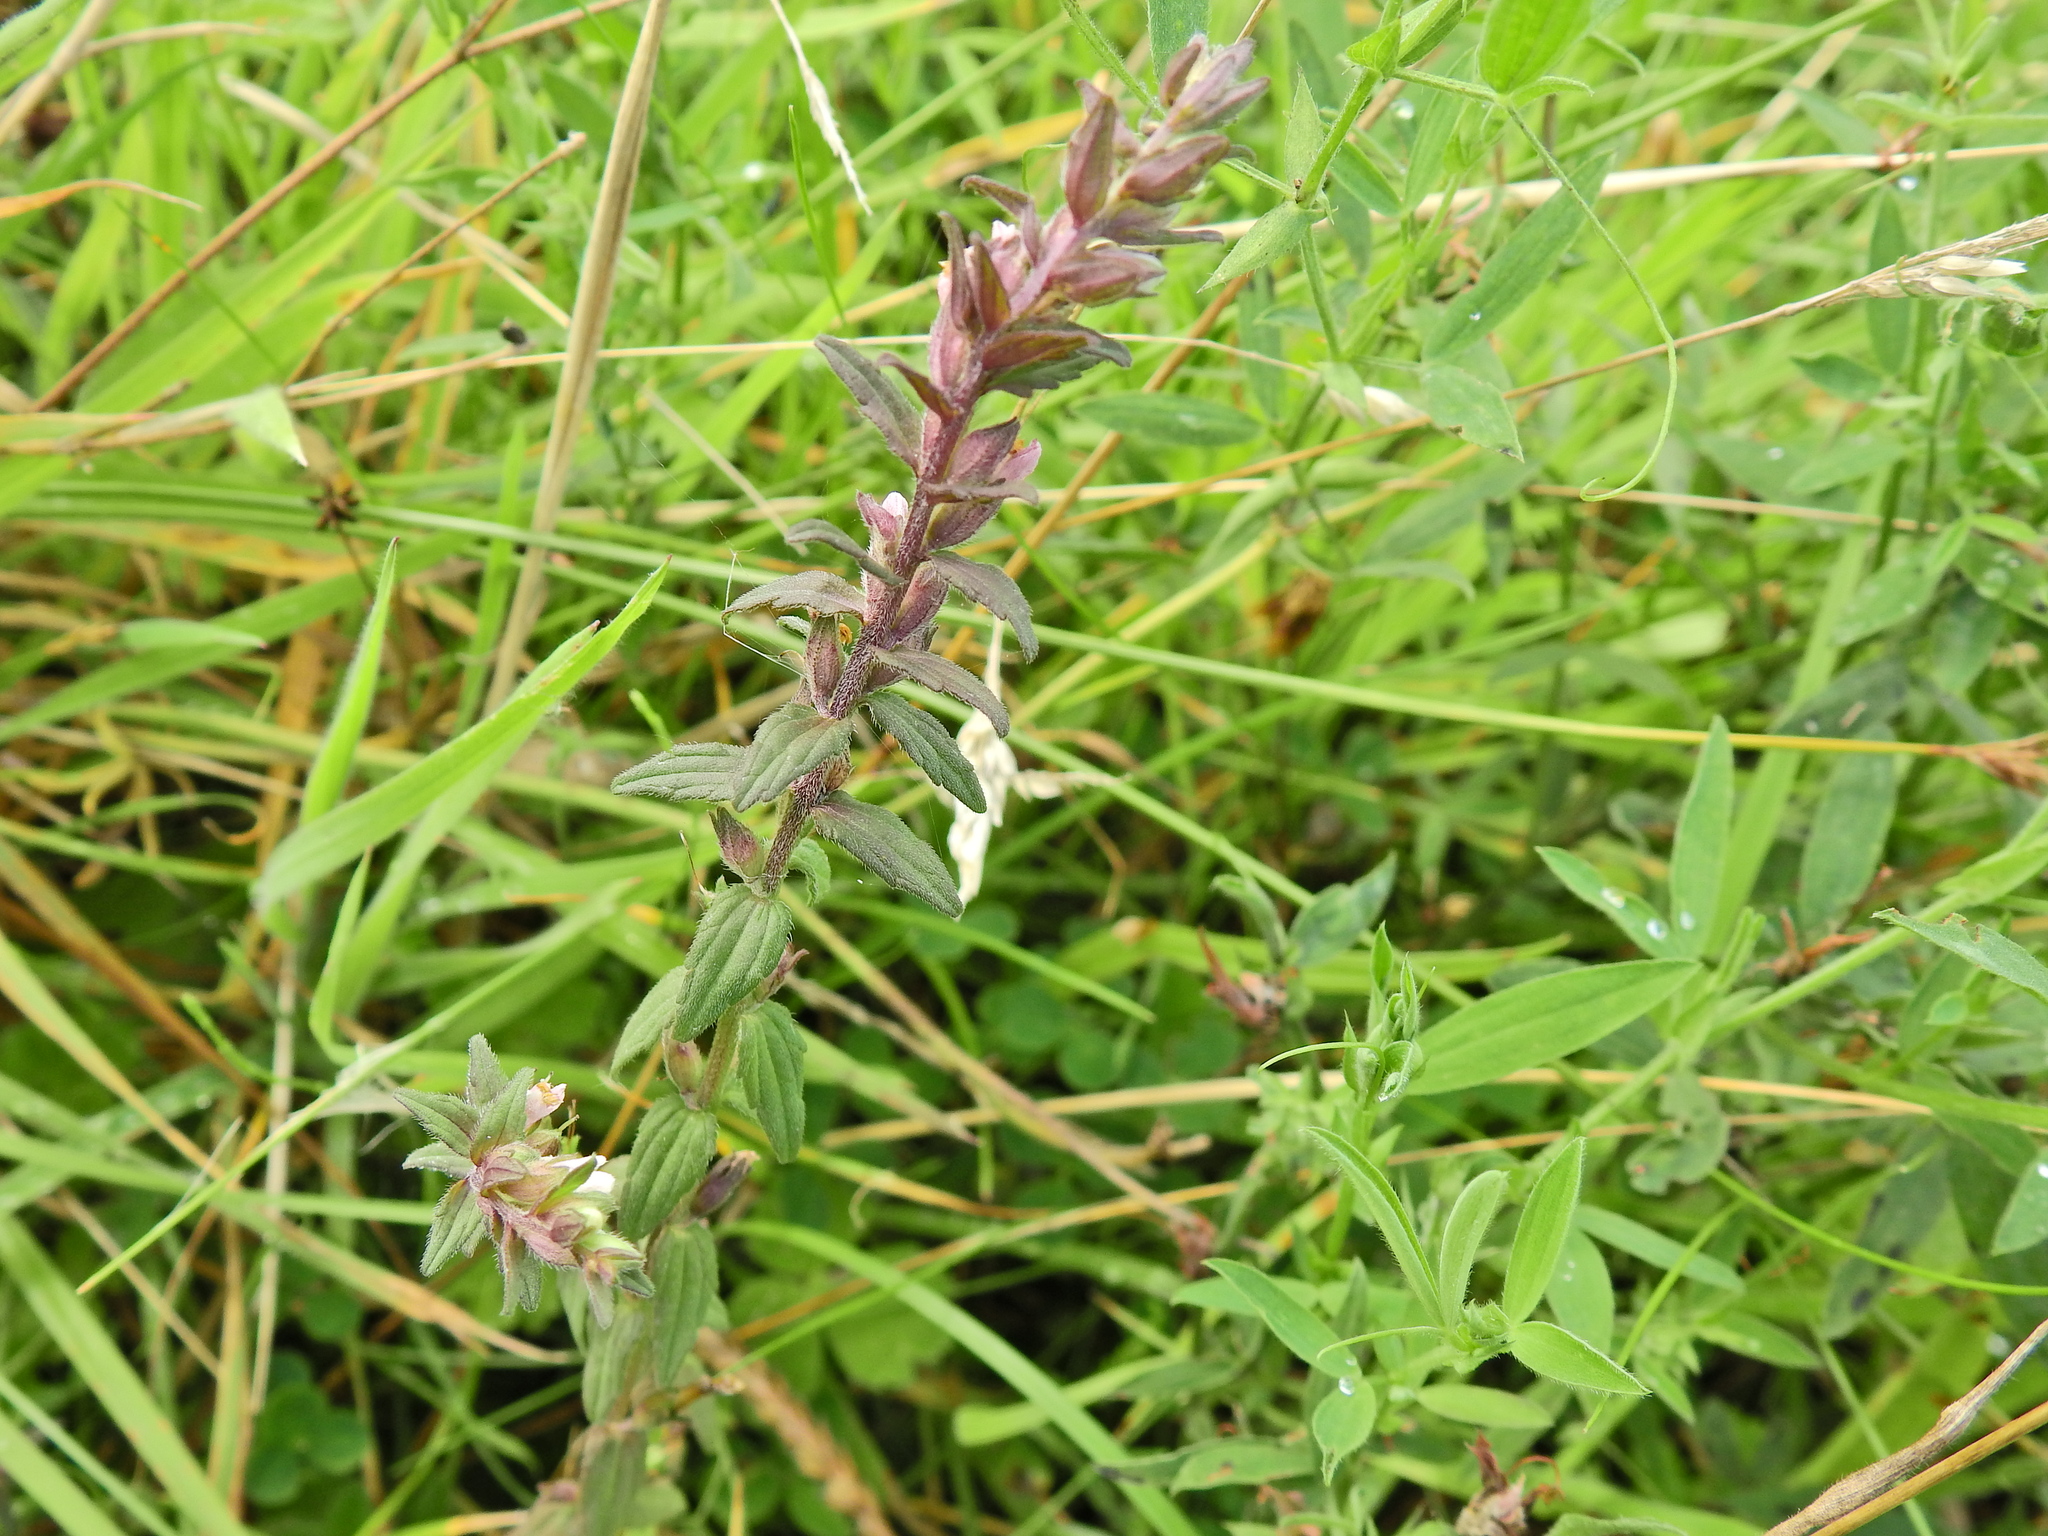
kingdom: Plantae
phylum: Tracheophyta
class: Magnoliopsida
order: Lamiales
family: Orobanchaceae
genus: Odontites
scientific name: Odontites vernus
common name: Red bartsia
